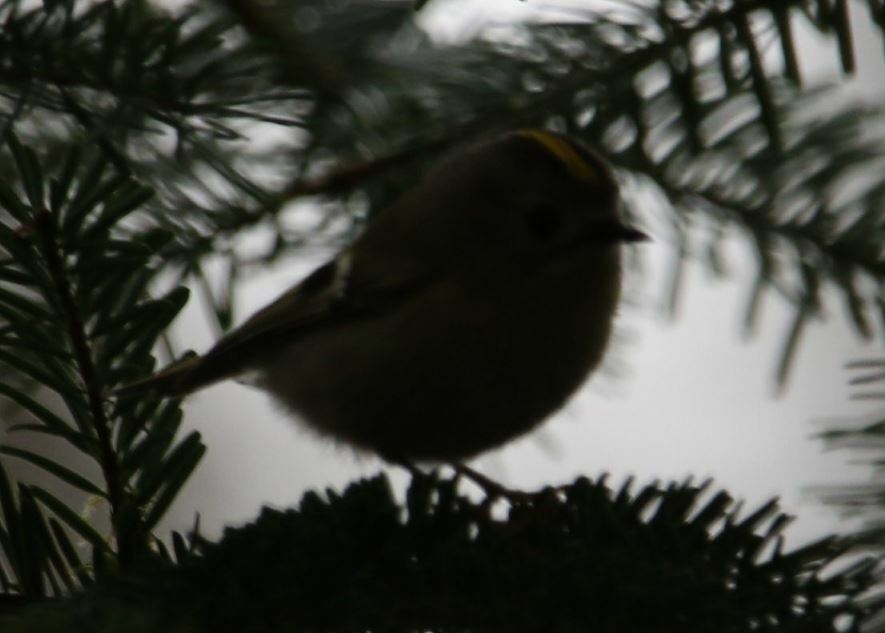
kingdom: Animalia
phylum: Chordata
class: Aves
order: Passeriformes
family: Regulidae
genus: Regulus
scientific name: Regulus regulus
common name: Goldcrest
